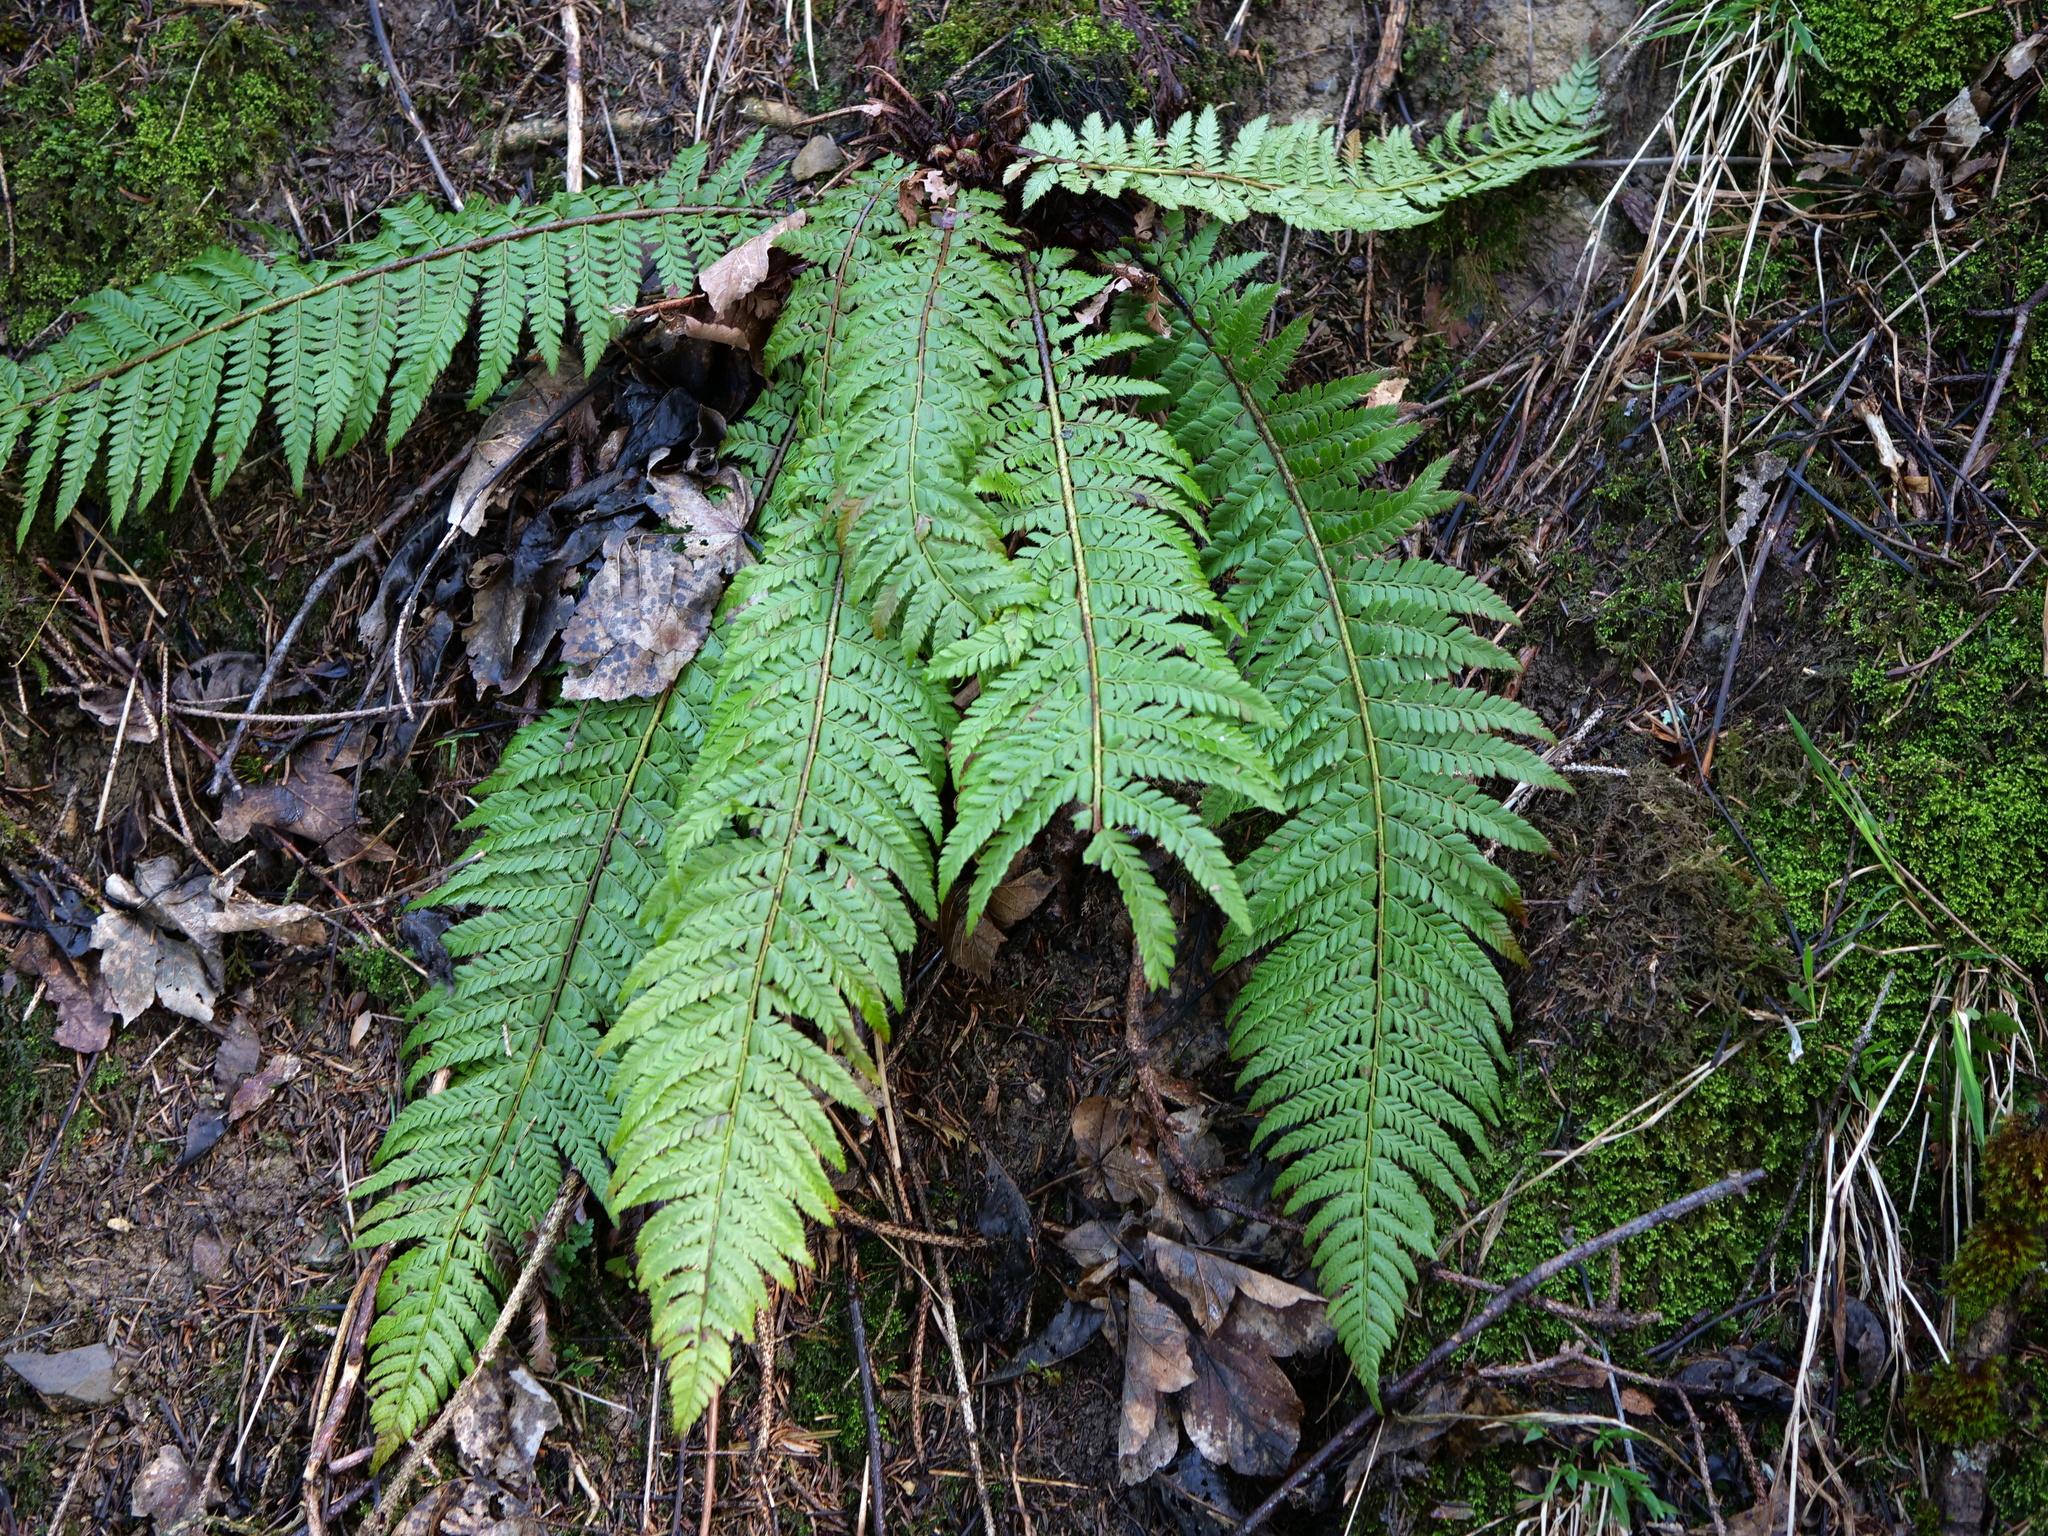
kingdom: Plantae
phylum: Tracheophyta
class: Polypodiopsida
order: Polypodiales
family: Dryopteridaceae
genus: Polystichum
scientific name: Polystichum aculeatum
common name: Hard shield-fern
